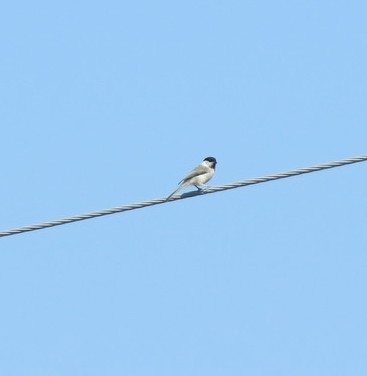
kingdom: Animalia
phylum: Chordata
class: Aves
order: Passeriformes
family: Paridae
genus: Poecile
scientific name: Poecile montanus
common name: Willow tit
